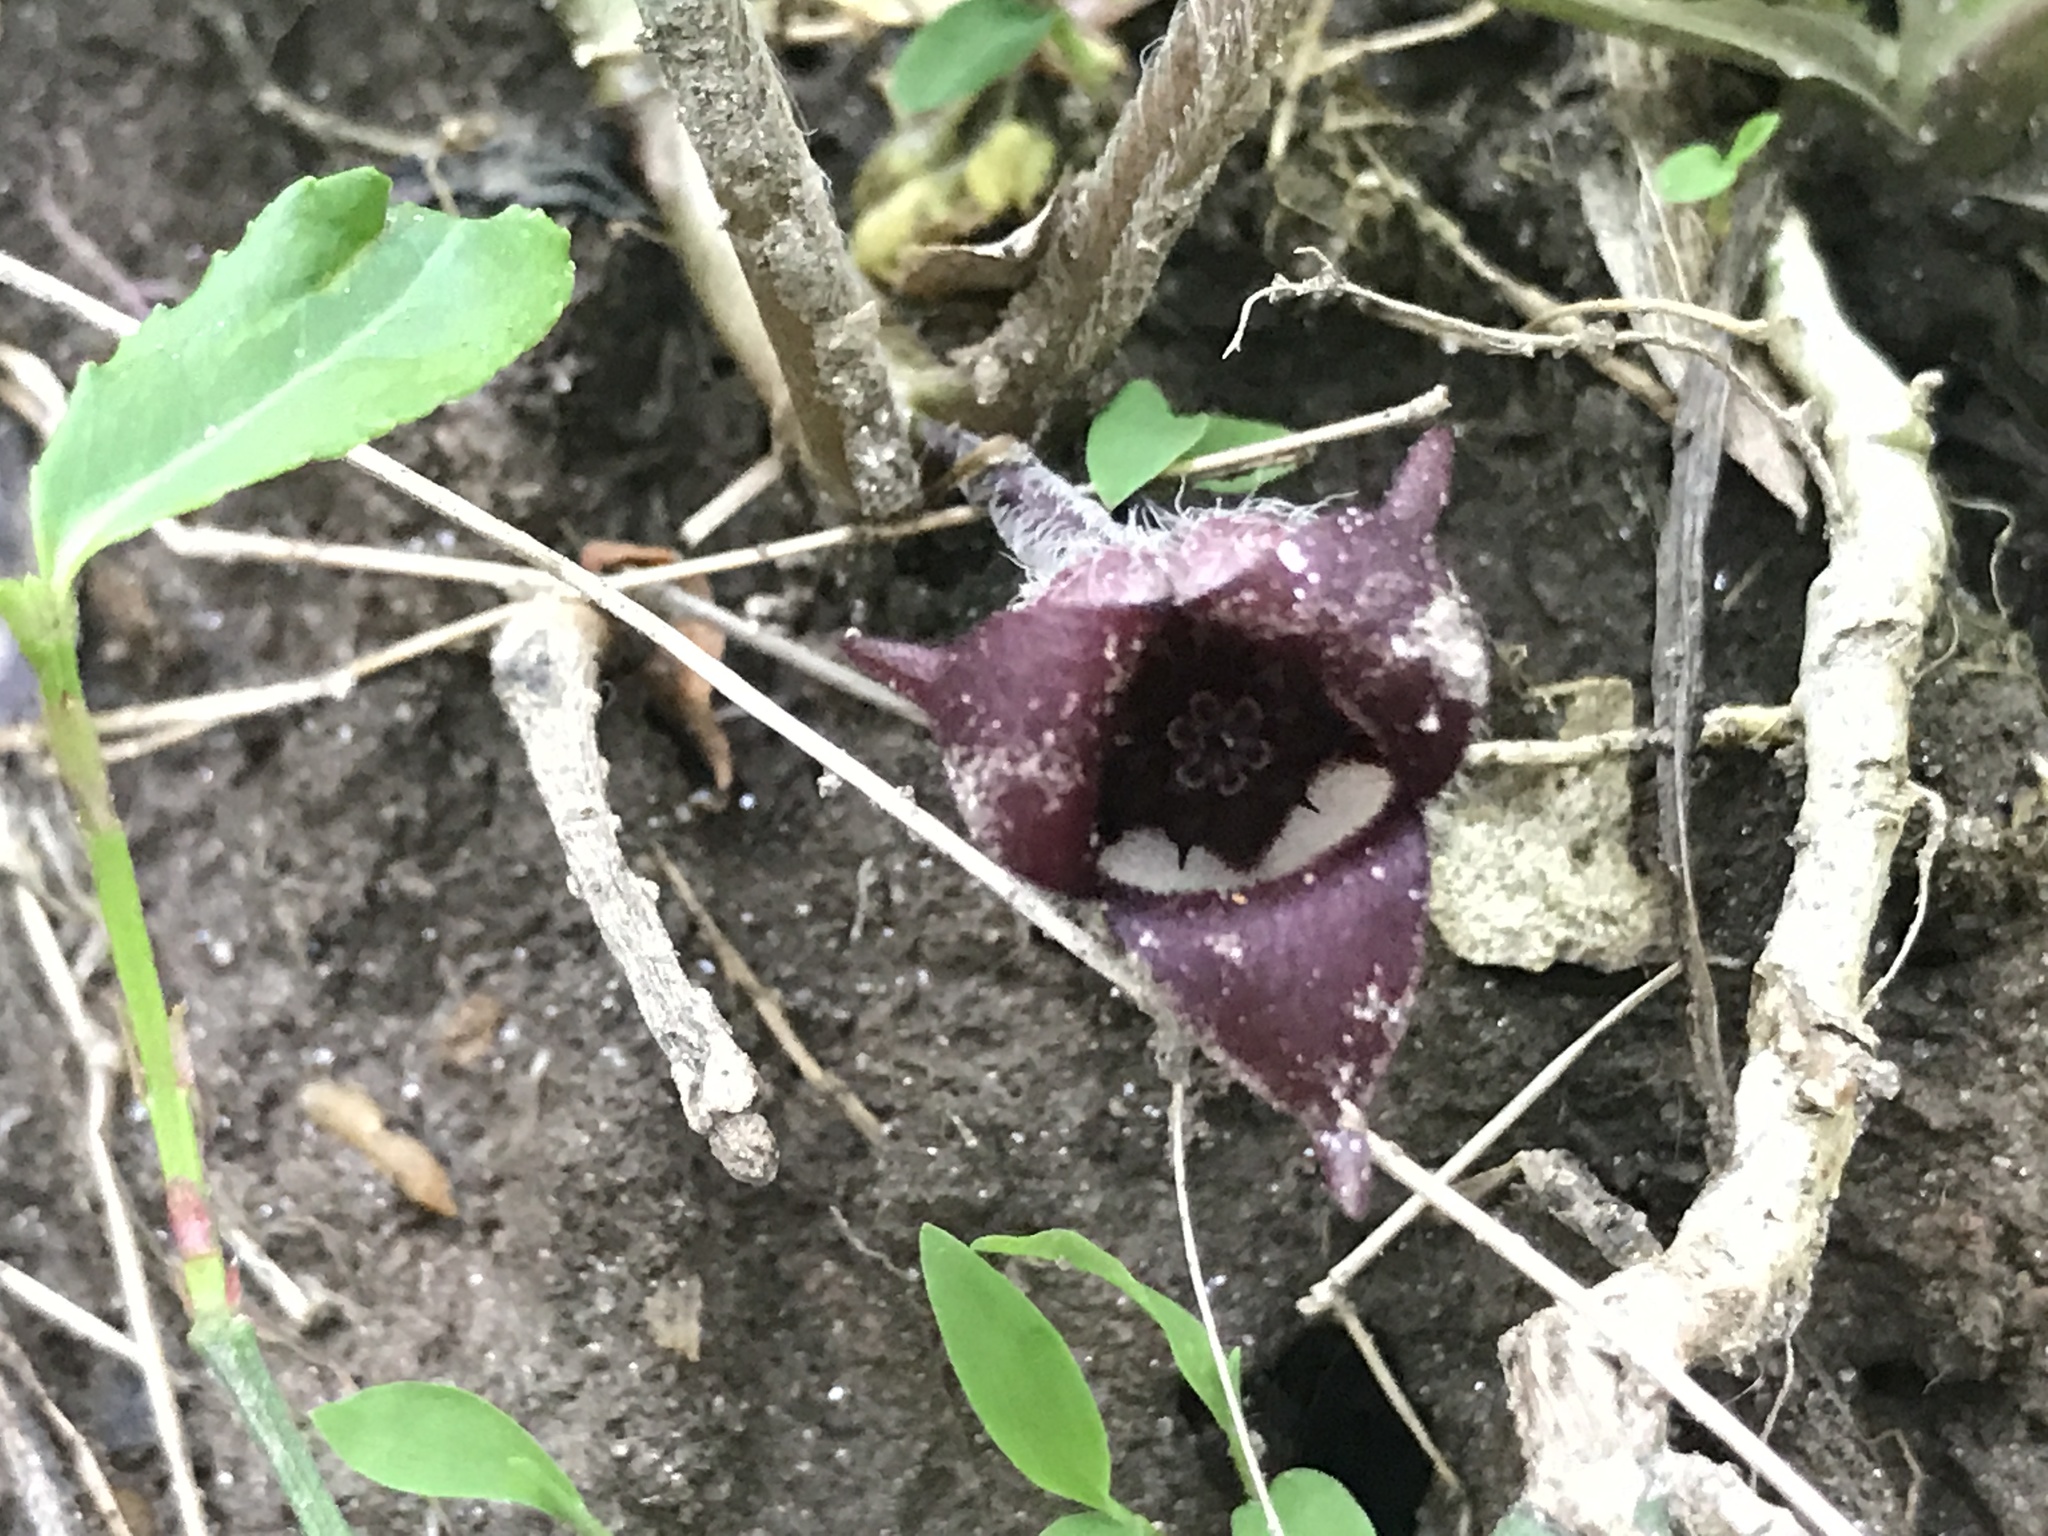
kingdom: Plantae
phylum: Tracheophyta
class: Magnoliopsida
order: Piperales
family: Aristolochiaceae
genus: Asarum
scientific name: Asarum canadense
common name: Wild ginger
